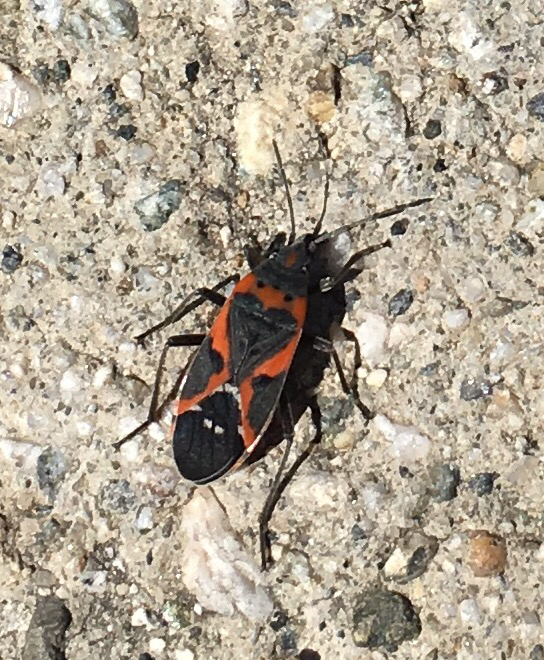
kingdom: Animalia
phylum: Arthropoda
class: Insecta
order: Hemiptera
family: Lygaeidae
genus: Lygaeus
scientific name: Lygaeus kalmii
